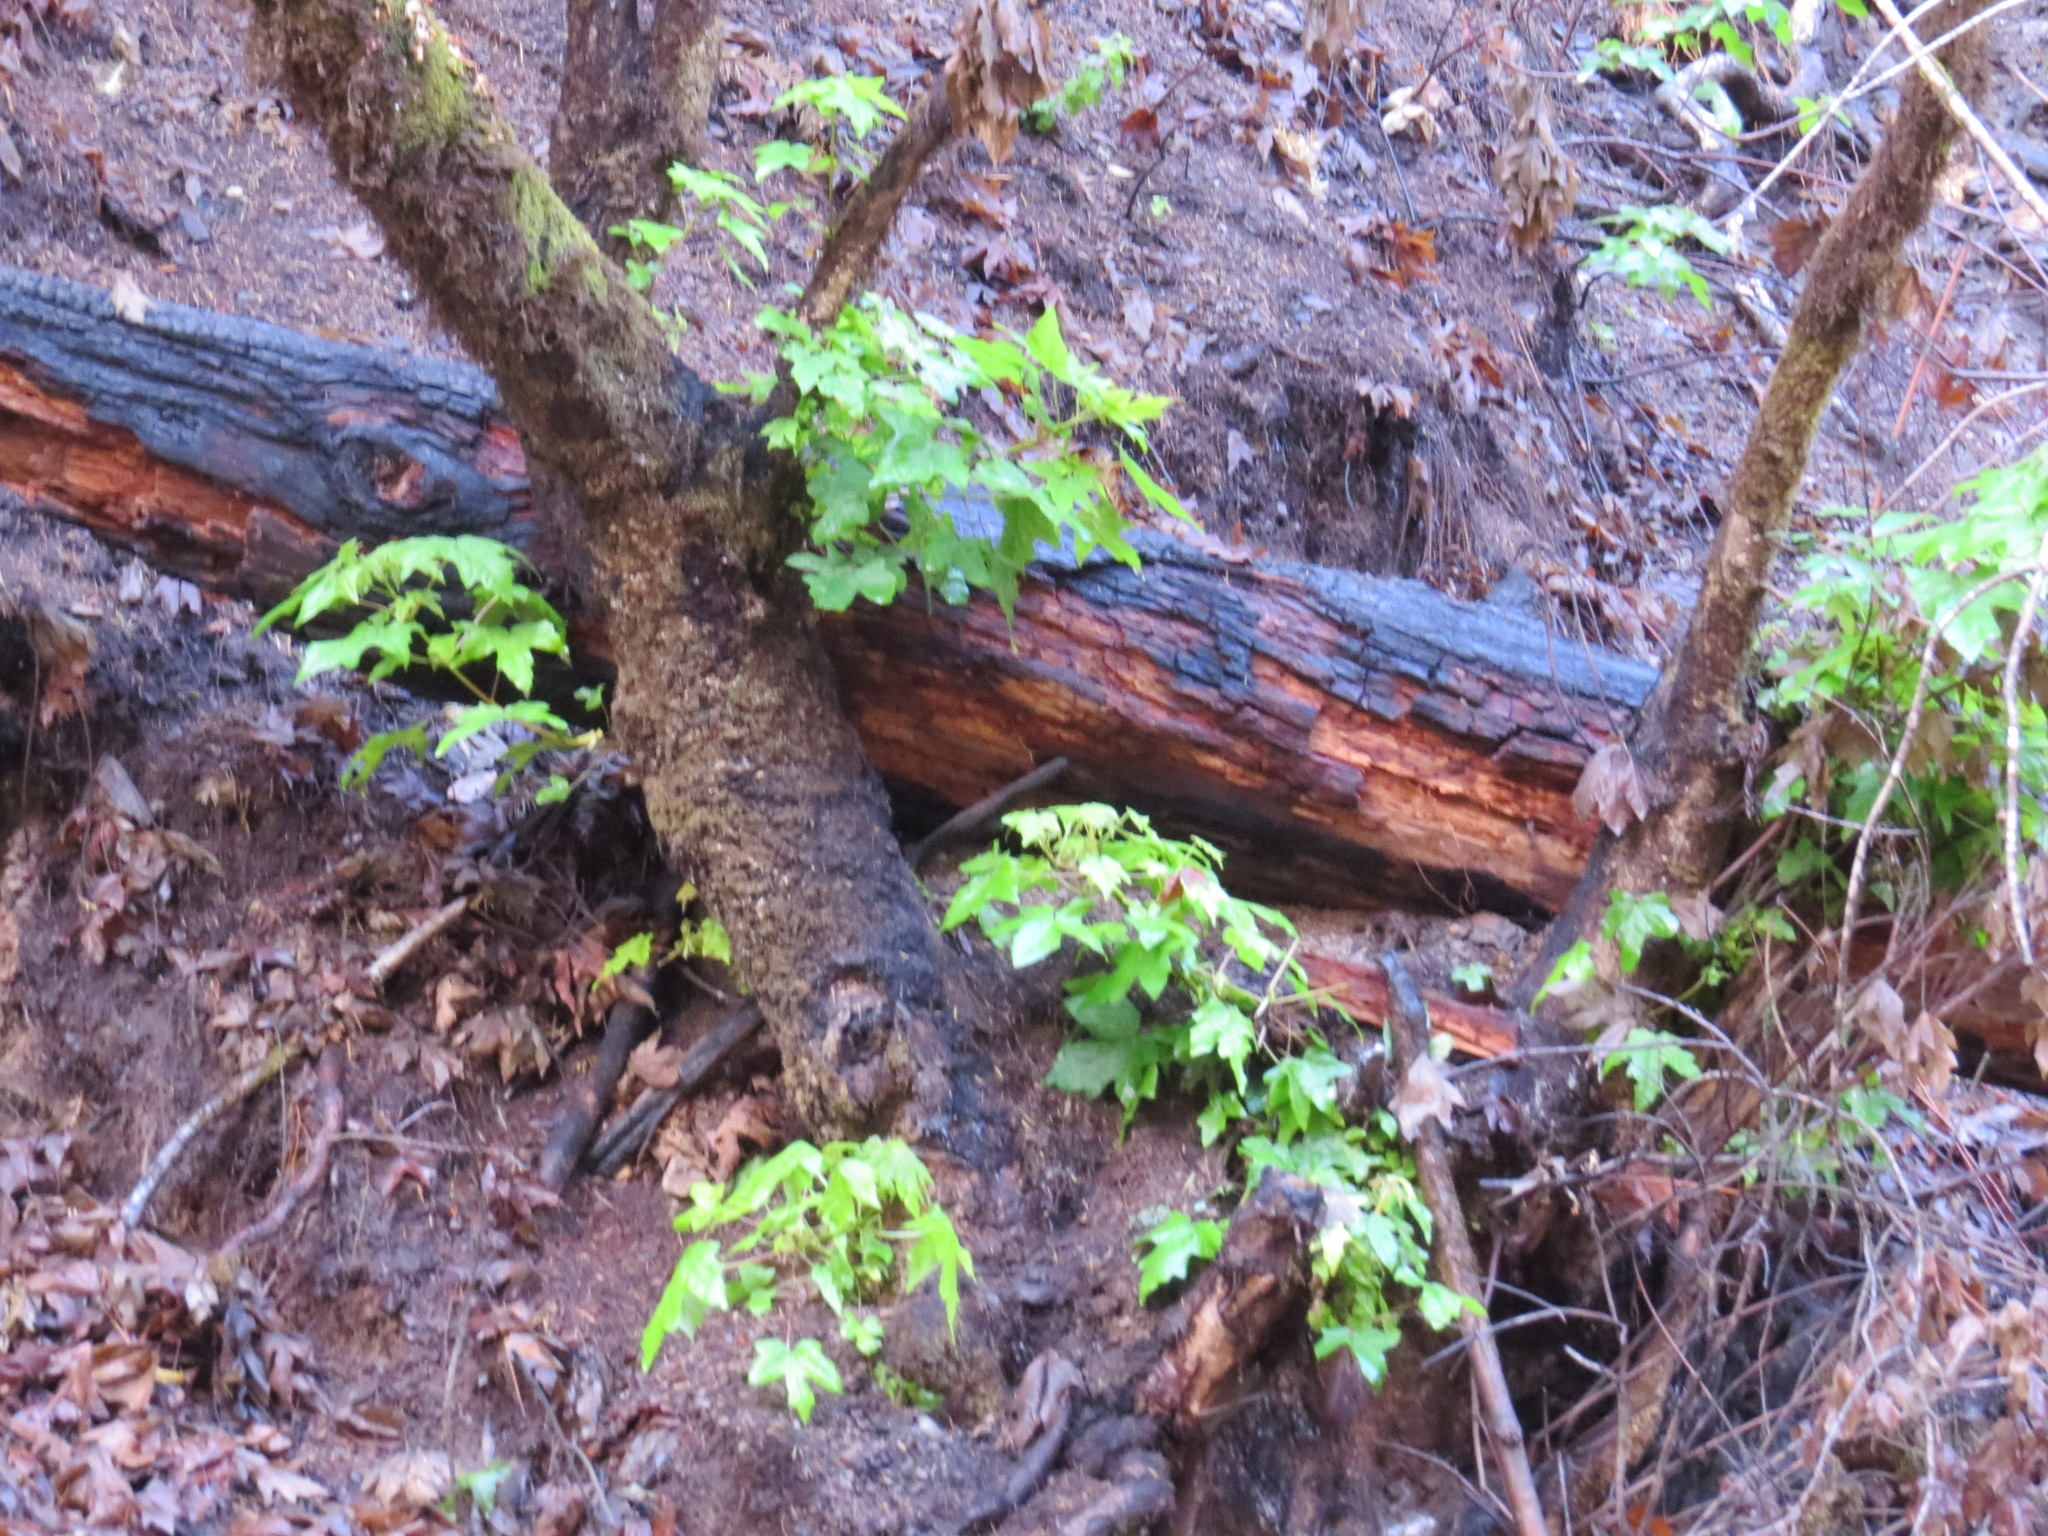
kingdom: Plantae
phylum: Tracheophyta
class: Magnoliopsida
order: Sapindales
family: Sapindaceae
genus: Acer
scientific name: Acer macrophyllum
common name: Oregon maple
